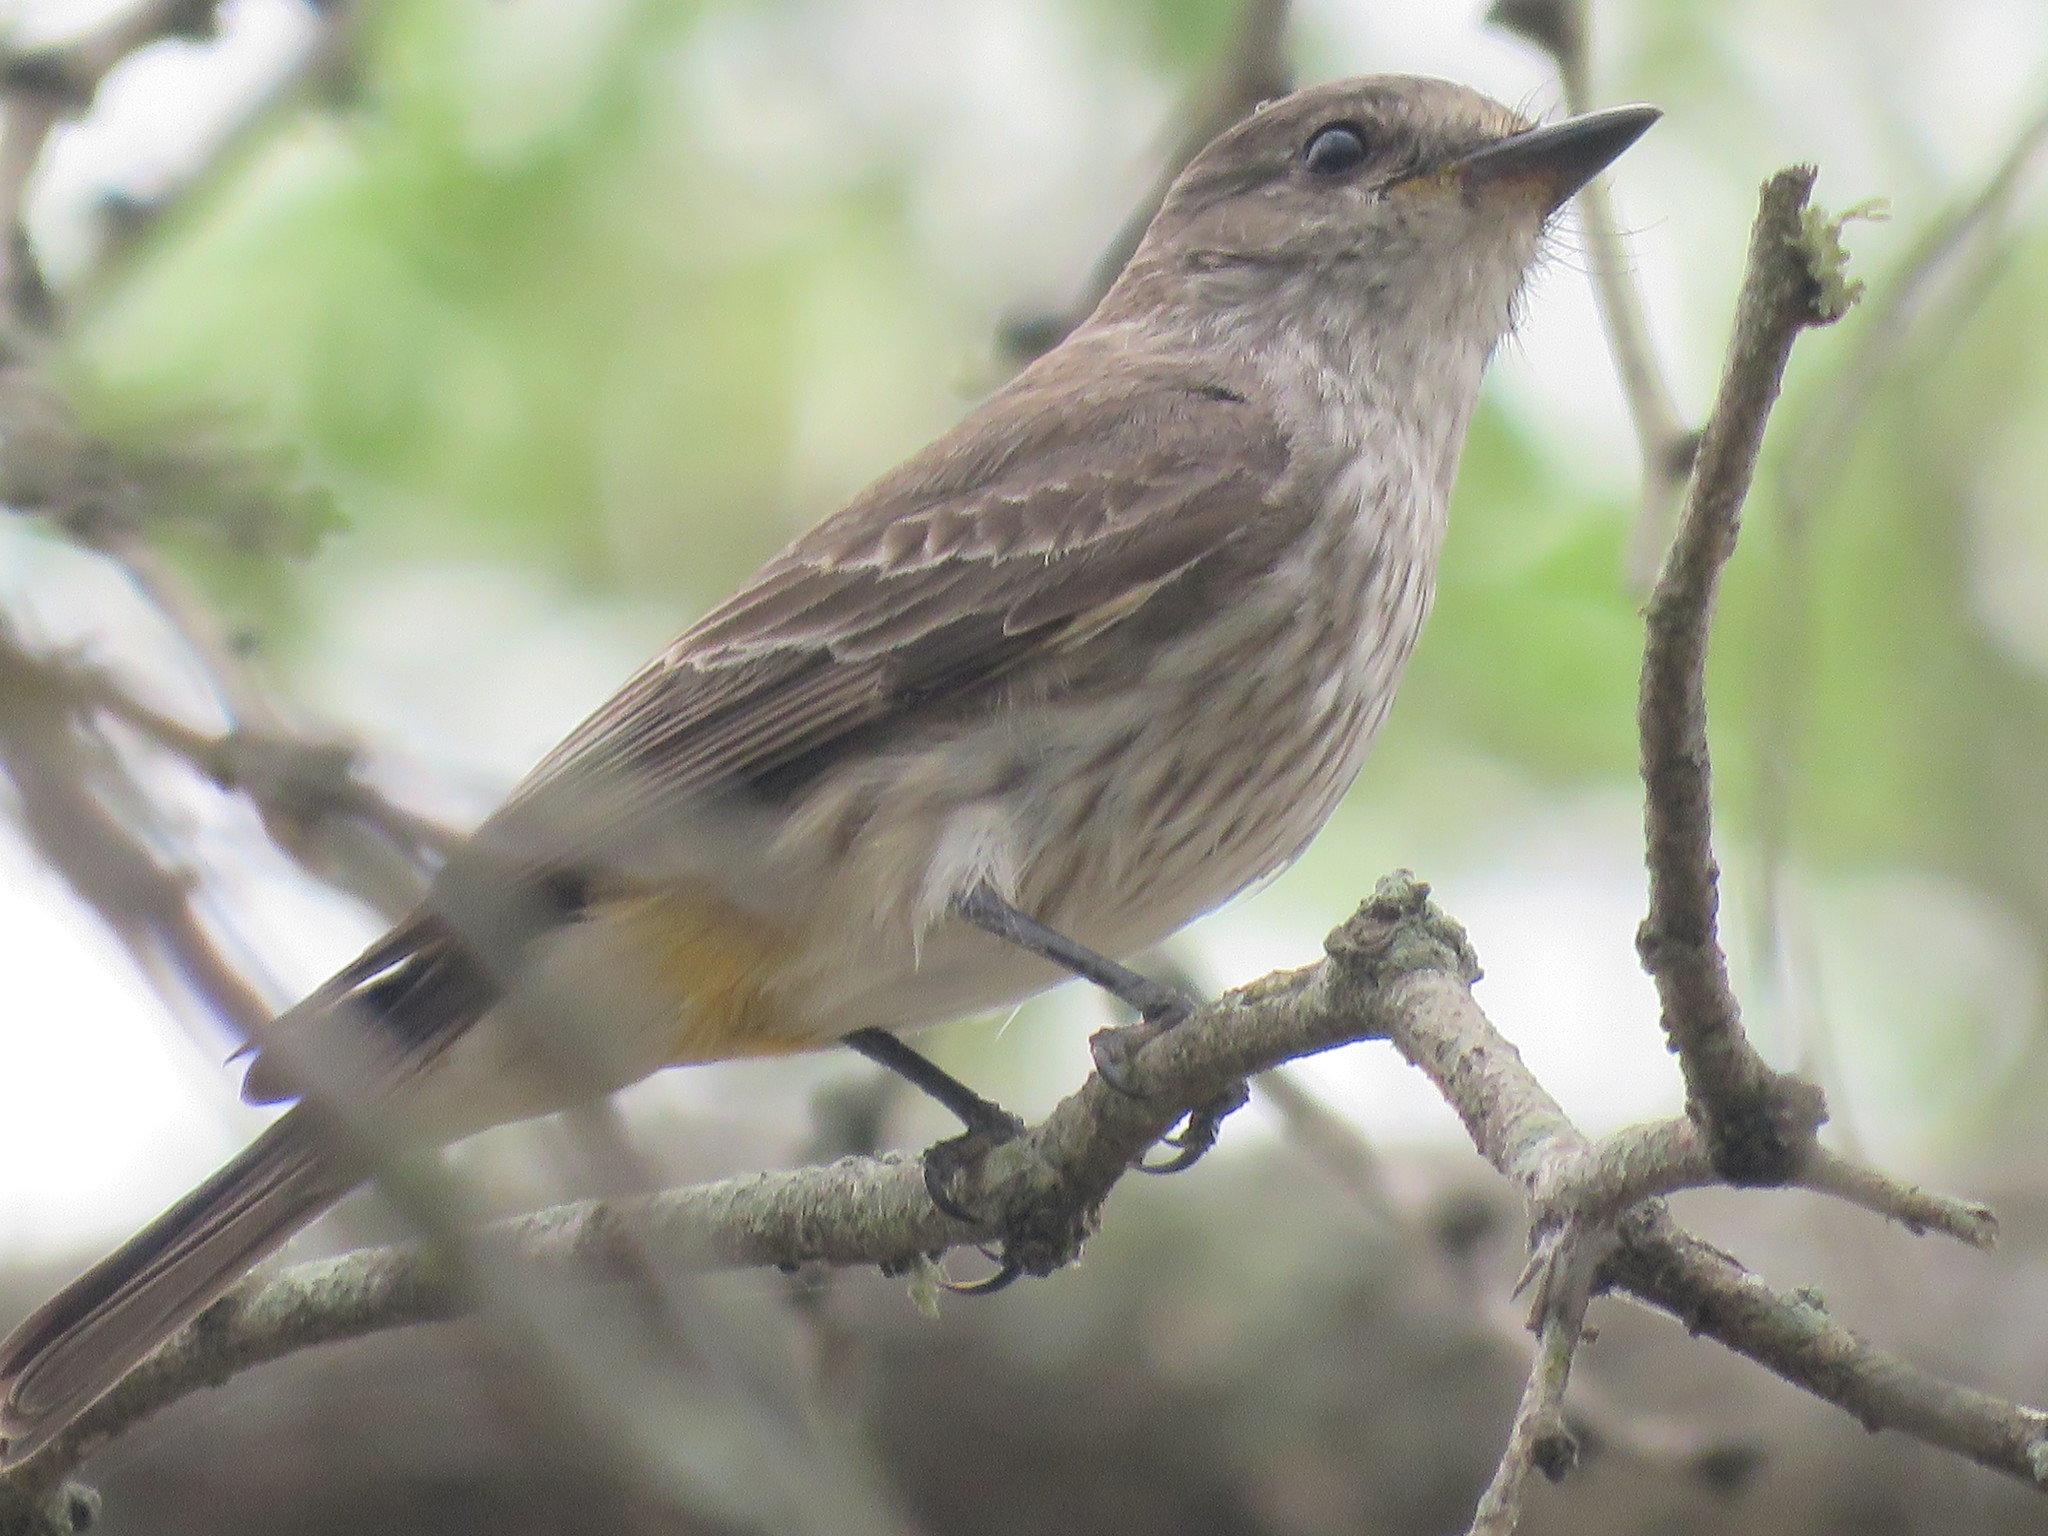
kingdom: Animalia
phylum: Chordata
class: Aves
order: Passeriformes
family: Tyrannidae
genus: Pyrocephalus
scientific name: Pyrocephalus rubinus
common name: Vermilion flycatcher
